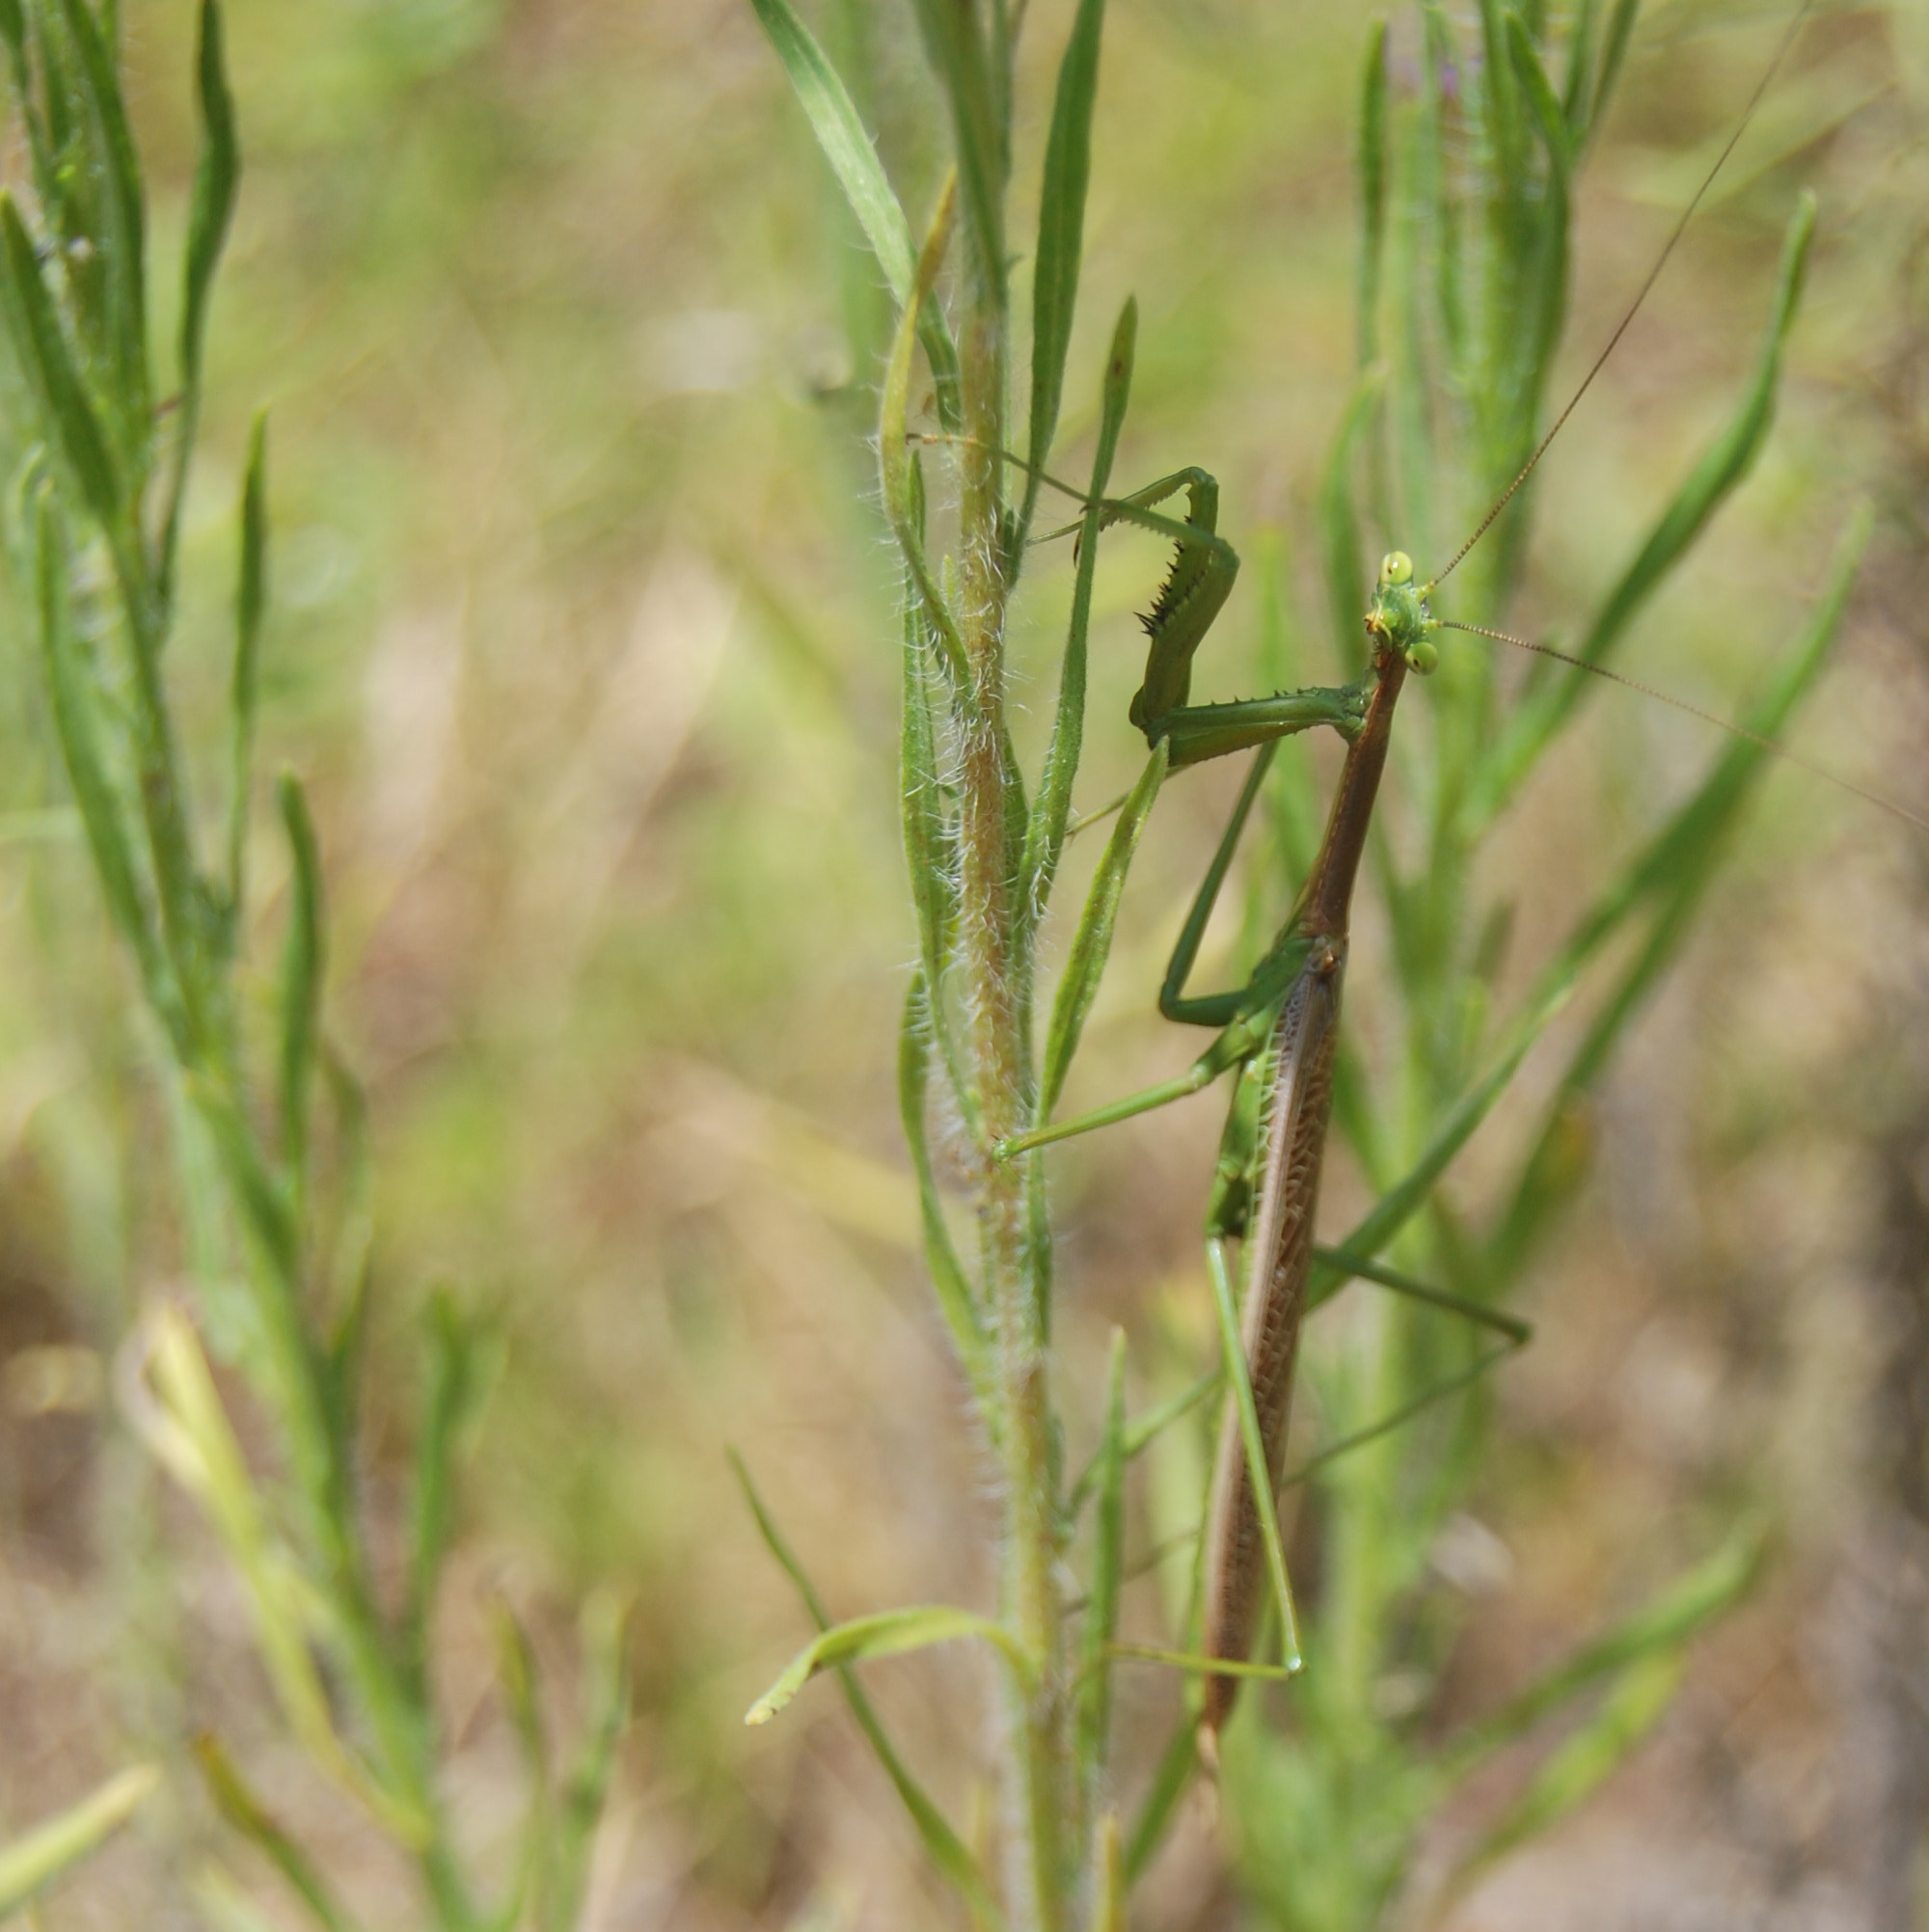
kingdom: Animalia
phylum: Arthropoda
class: Insecta
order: Mantodea
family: Coptopterygidae
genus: Coptopteryx
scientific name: Coptopteryx gayi
